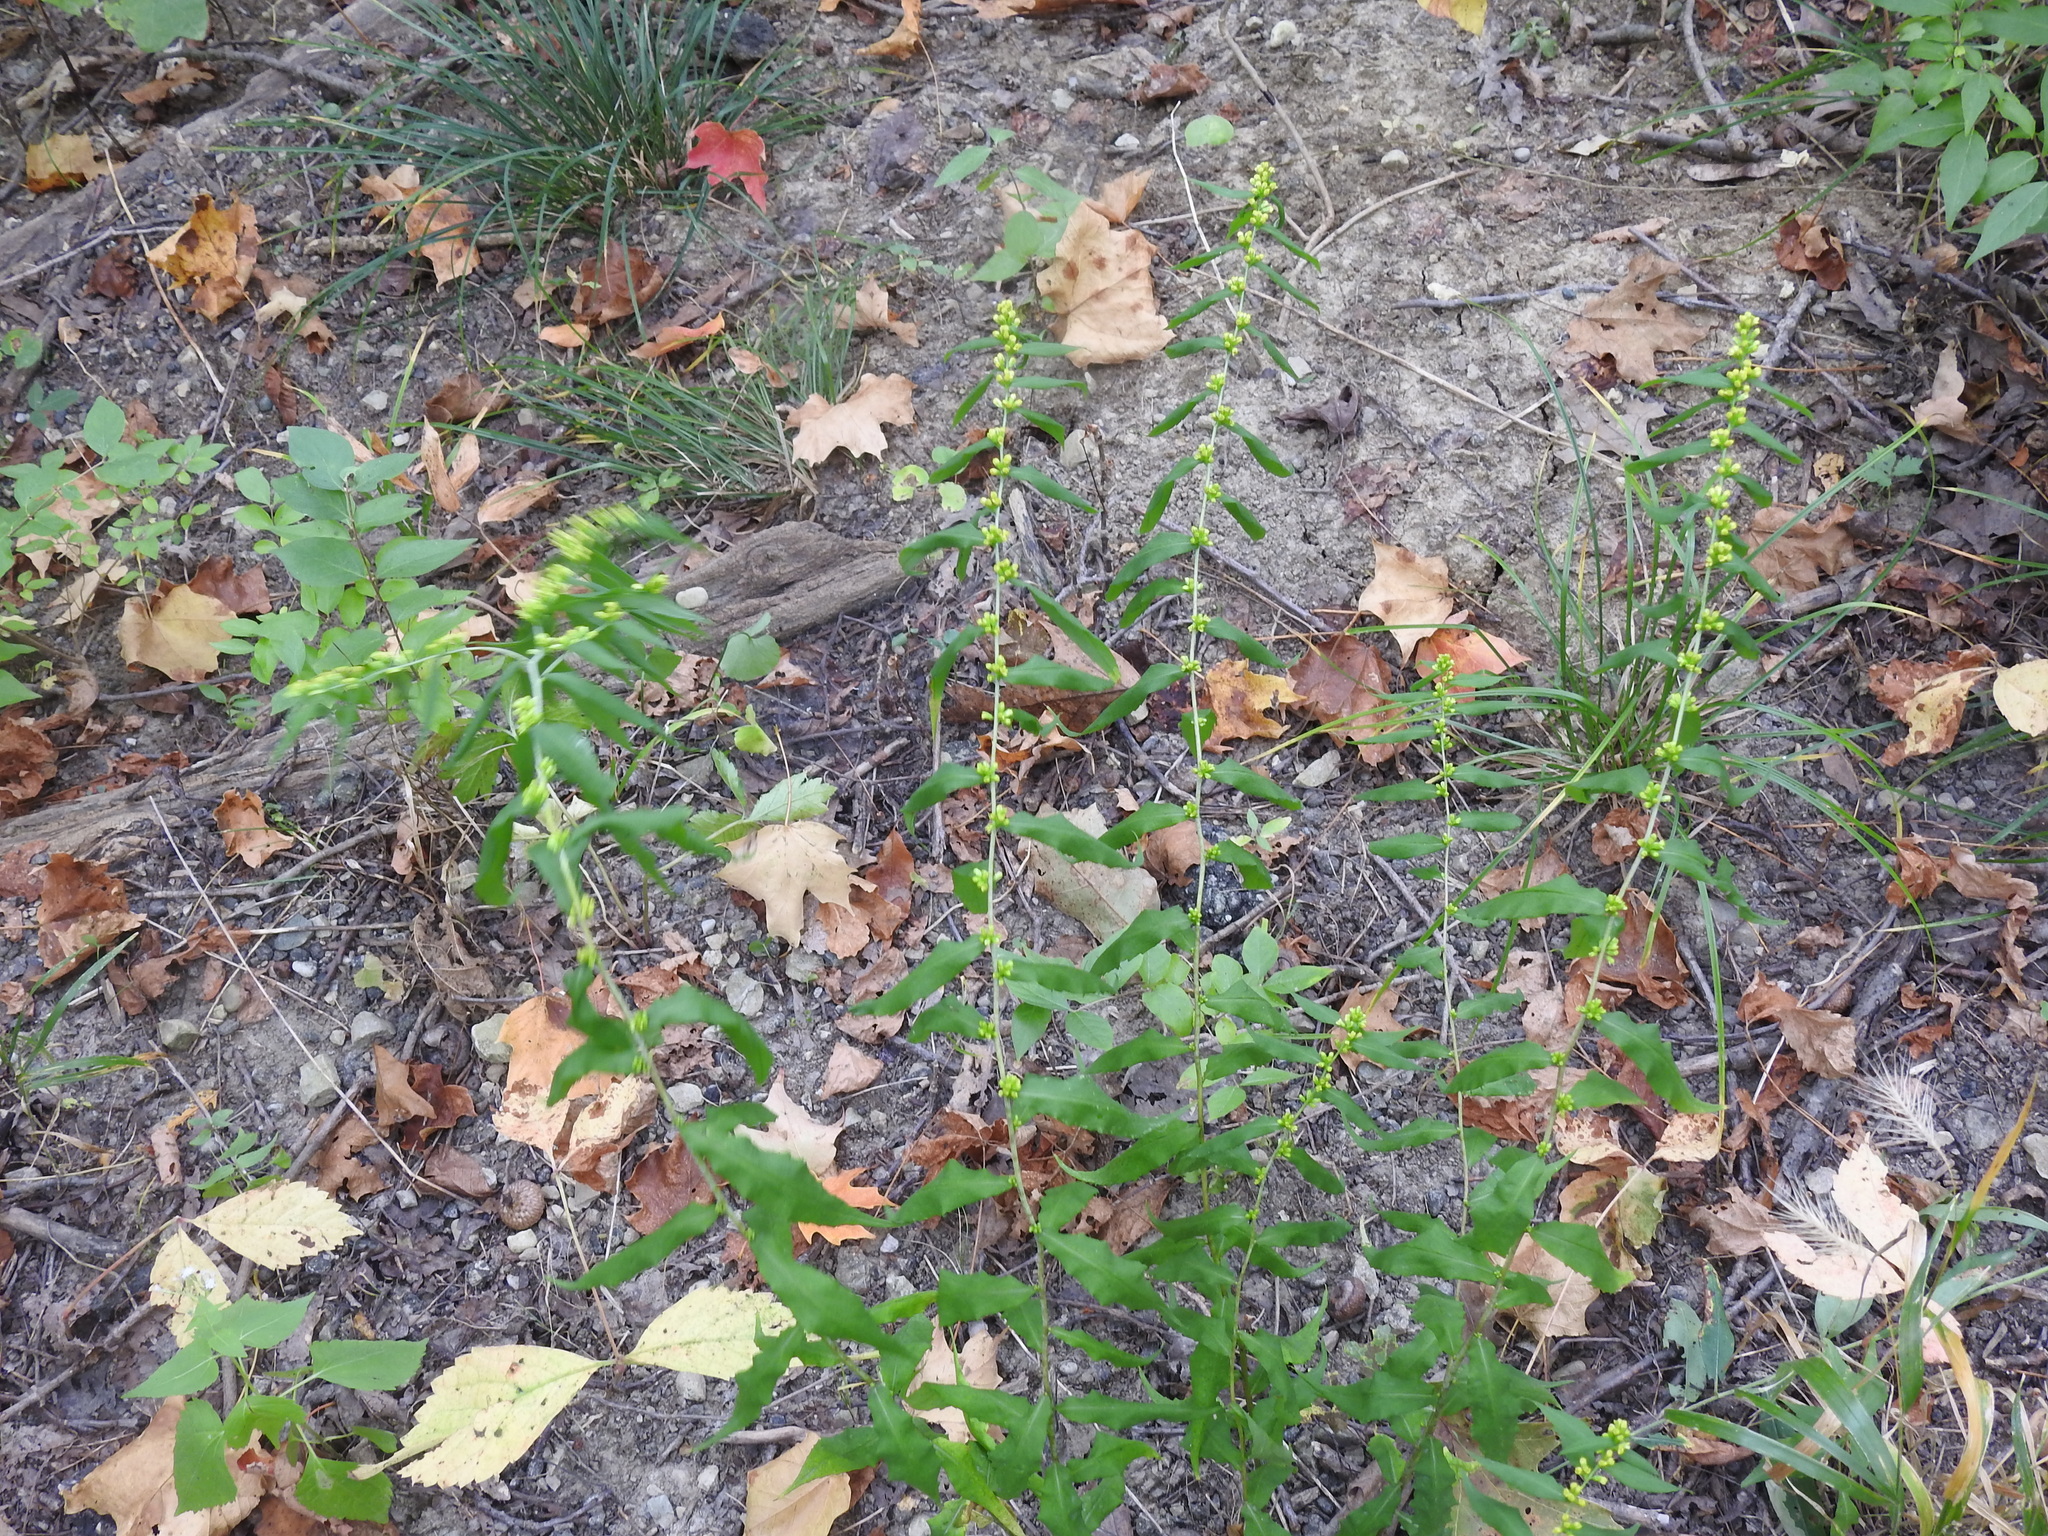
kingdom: Plantae
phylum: Tracheophyta
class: Magnoliopsida
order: Asterales
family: Asteraceae
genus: Solidago
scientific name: Solidago caesia
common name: Woodland goldenrod
